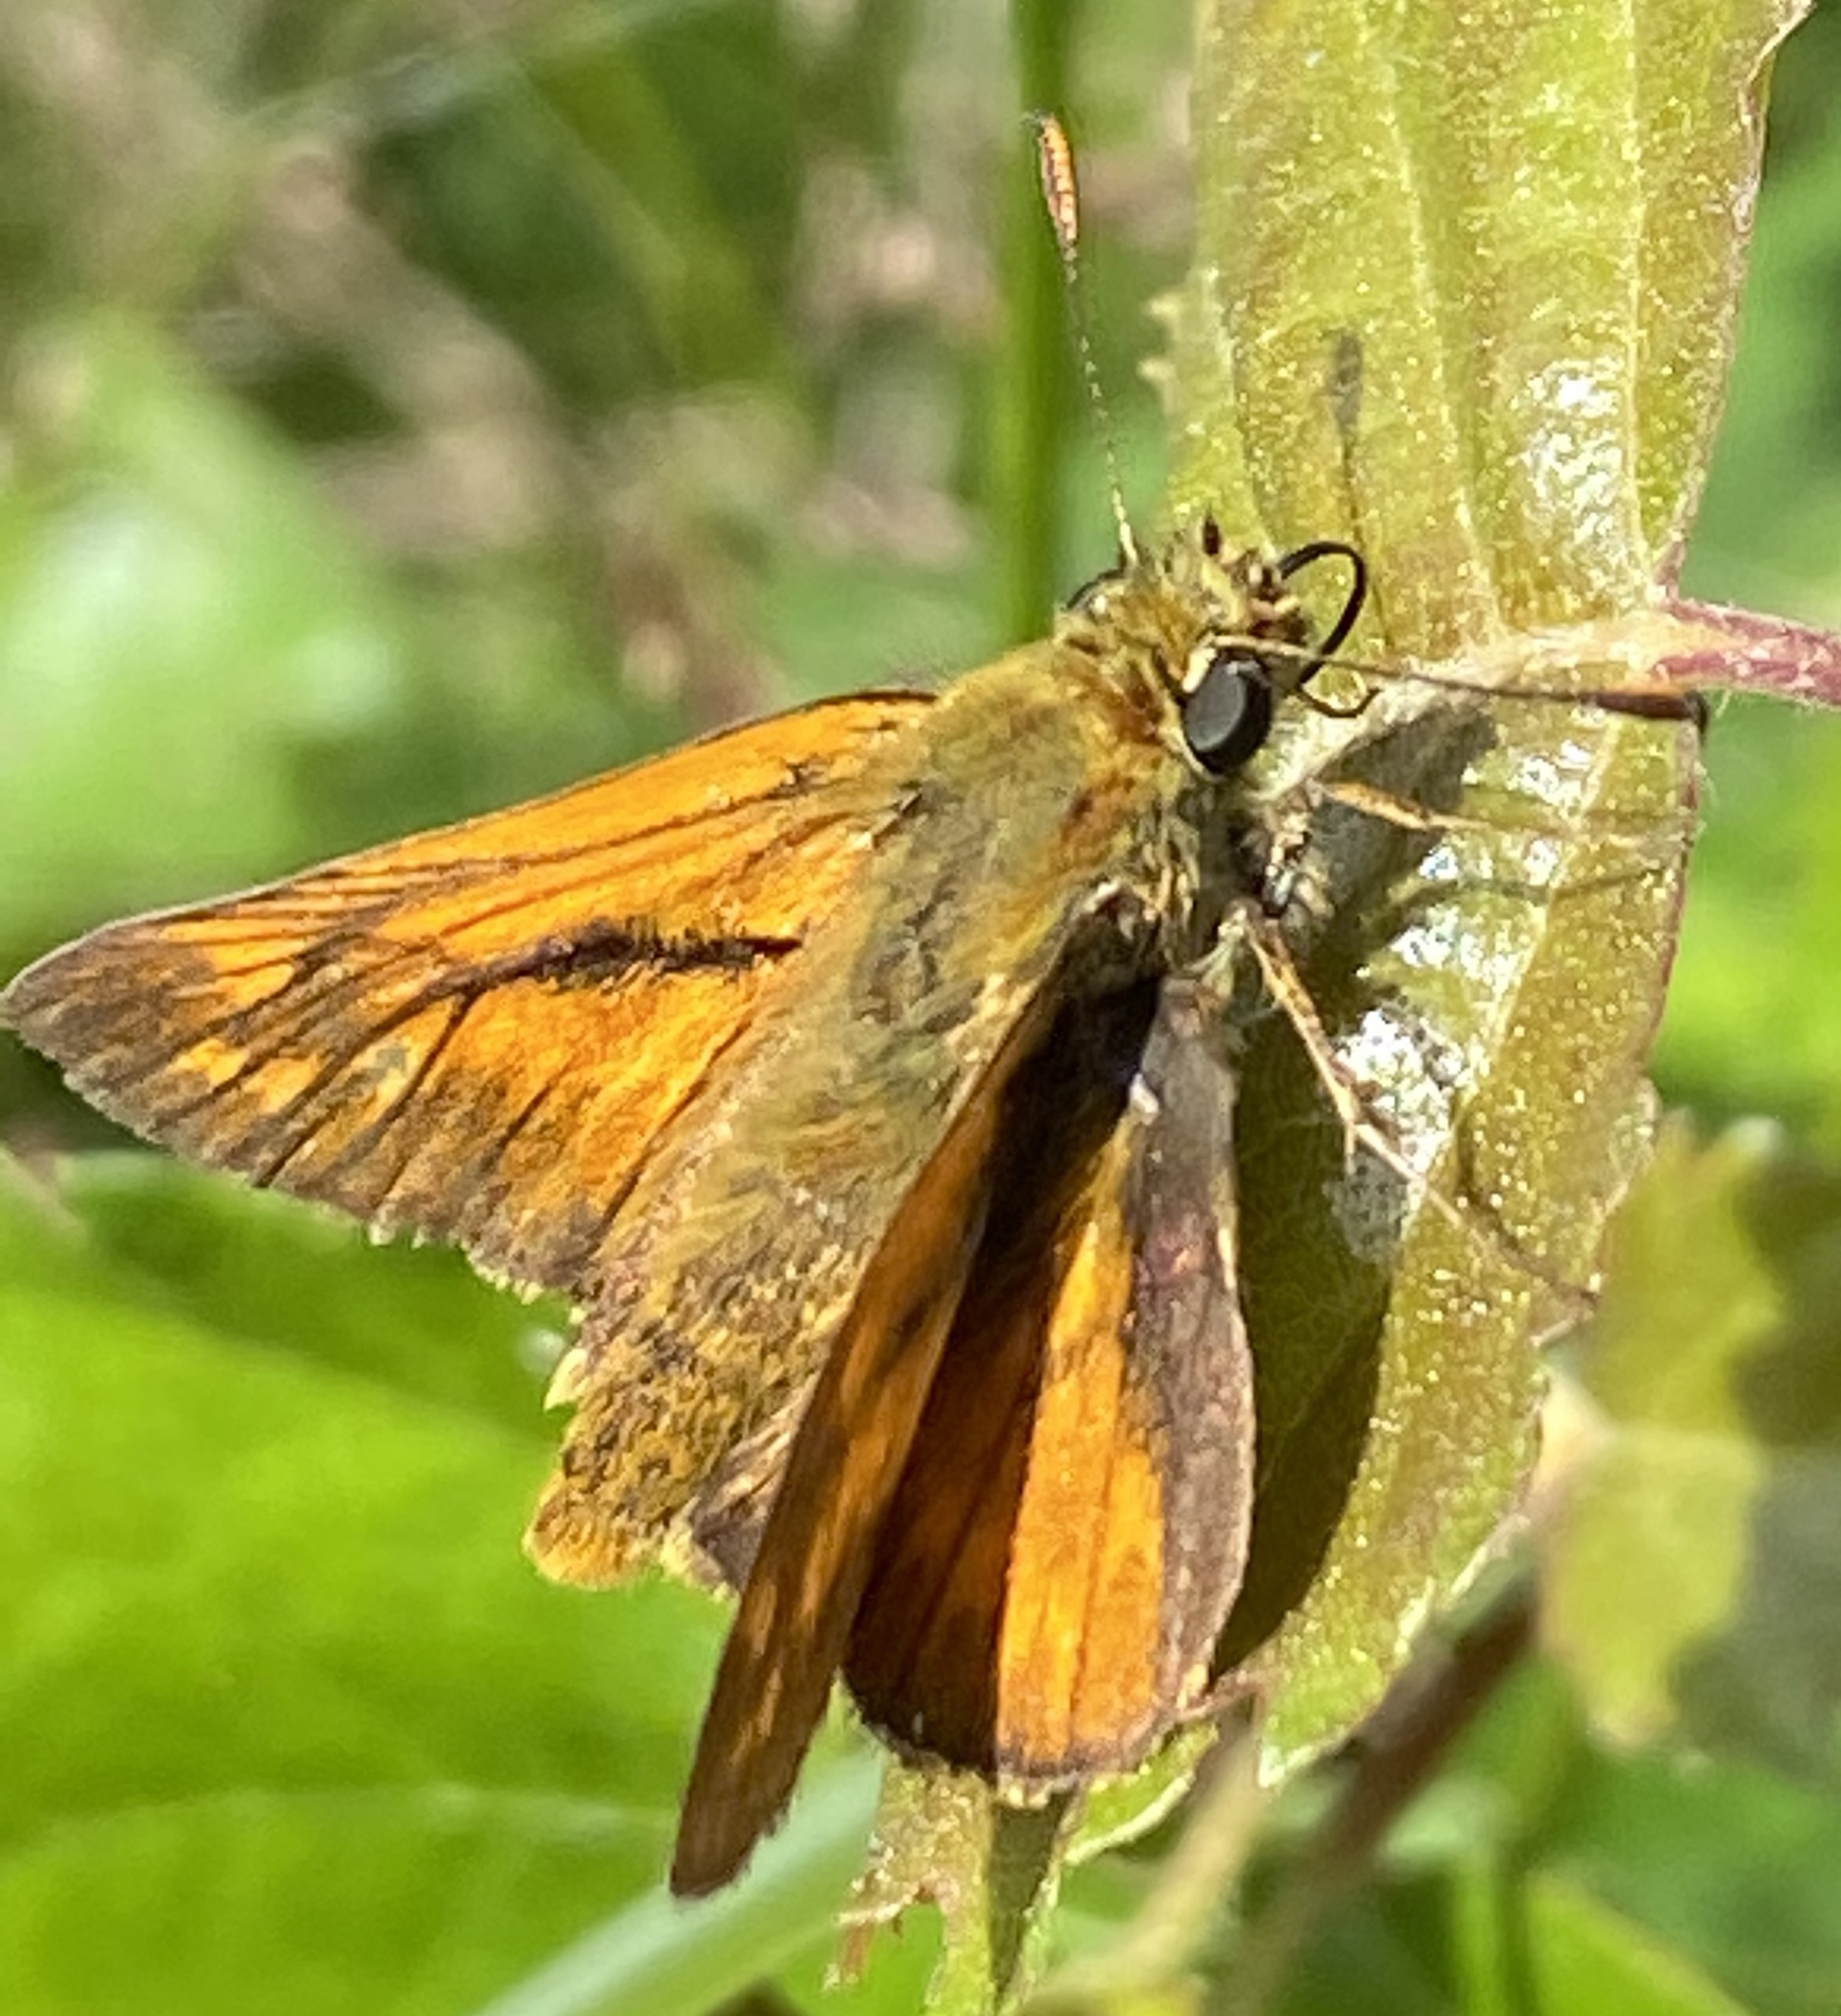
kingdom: Animalia
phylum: Arthropoda
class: Insecta
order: Lepidoptera
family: Hesperiidae
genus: Ochlodes
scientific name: Ochlodes venata
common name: Large skipper
